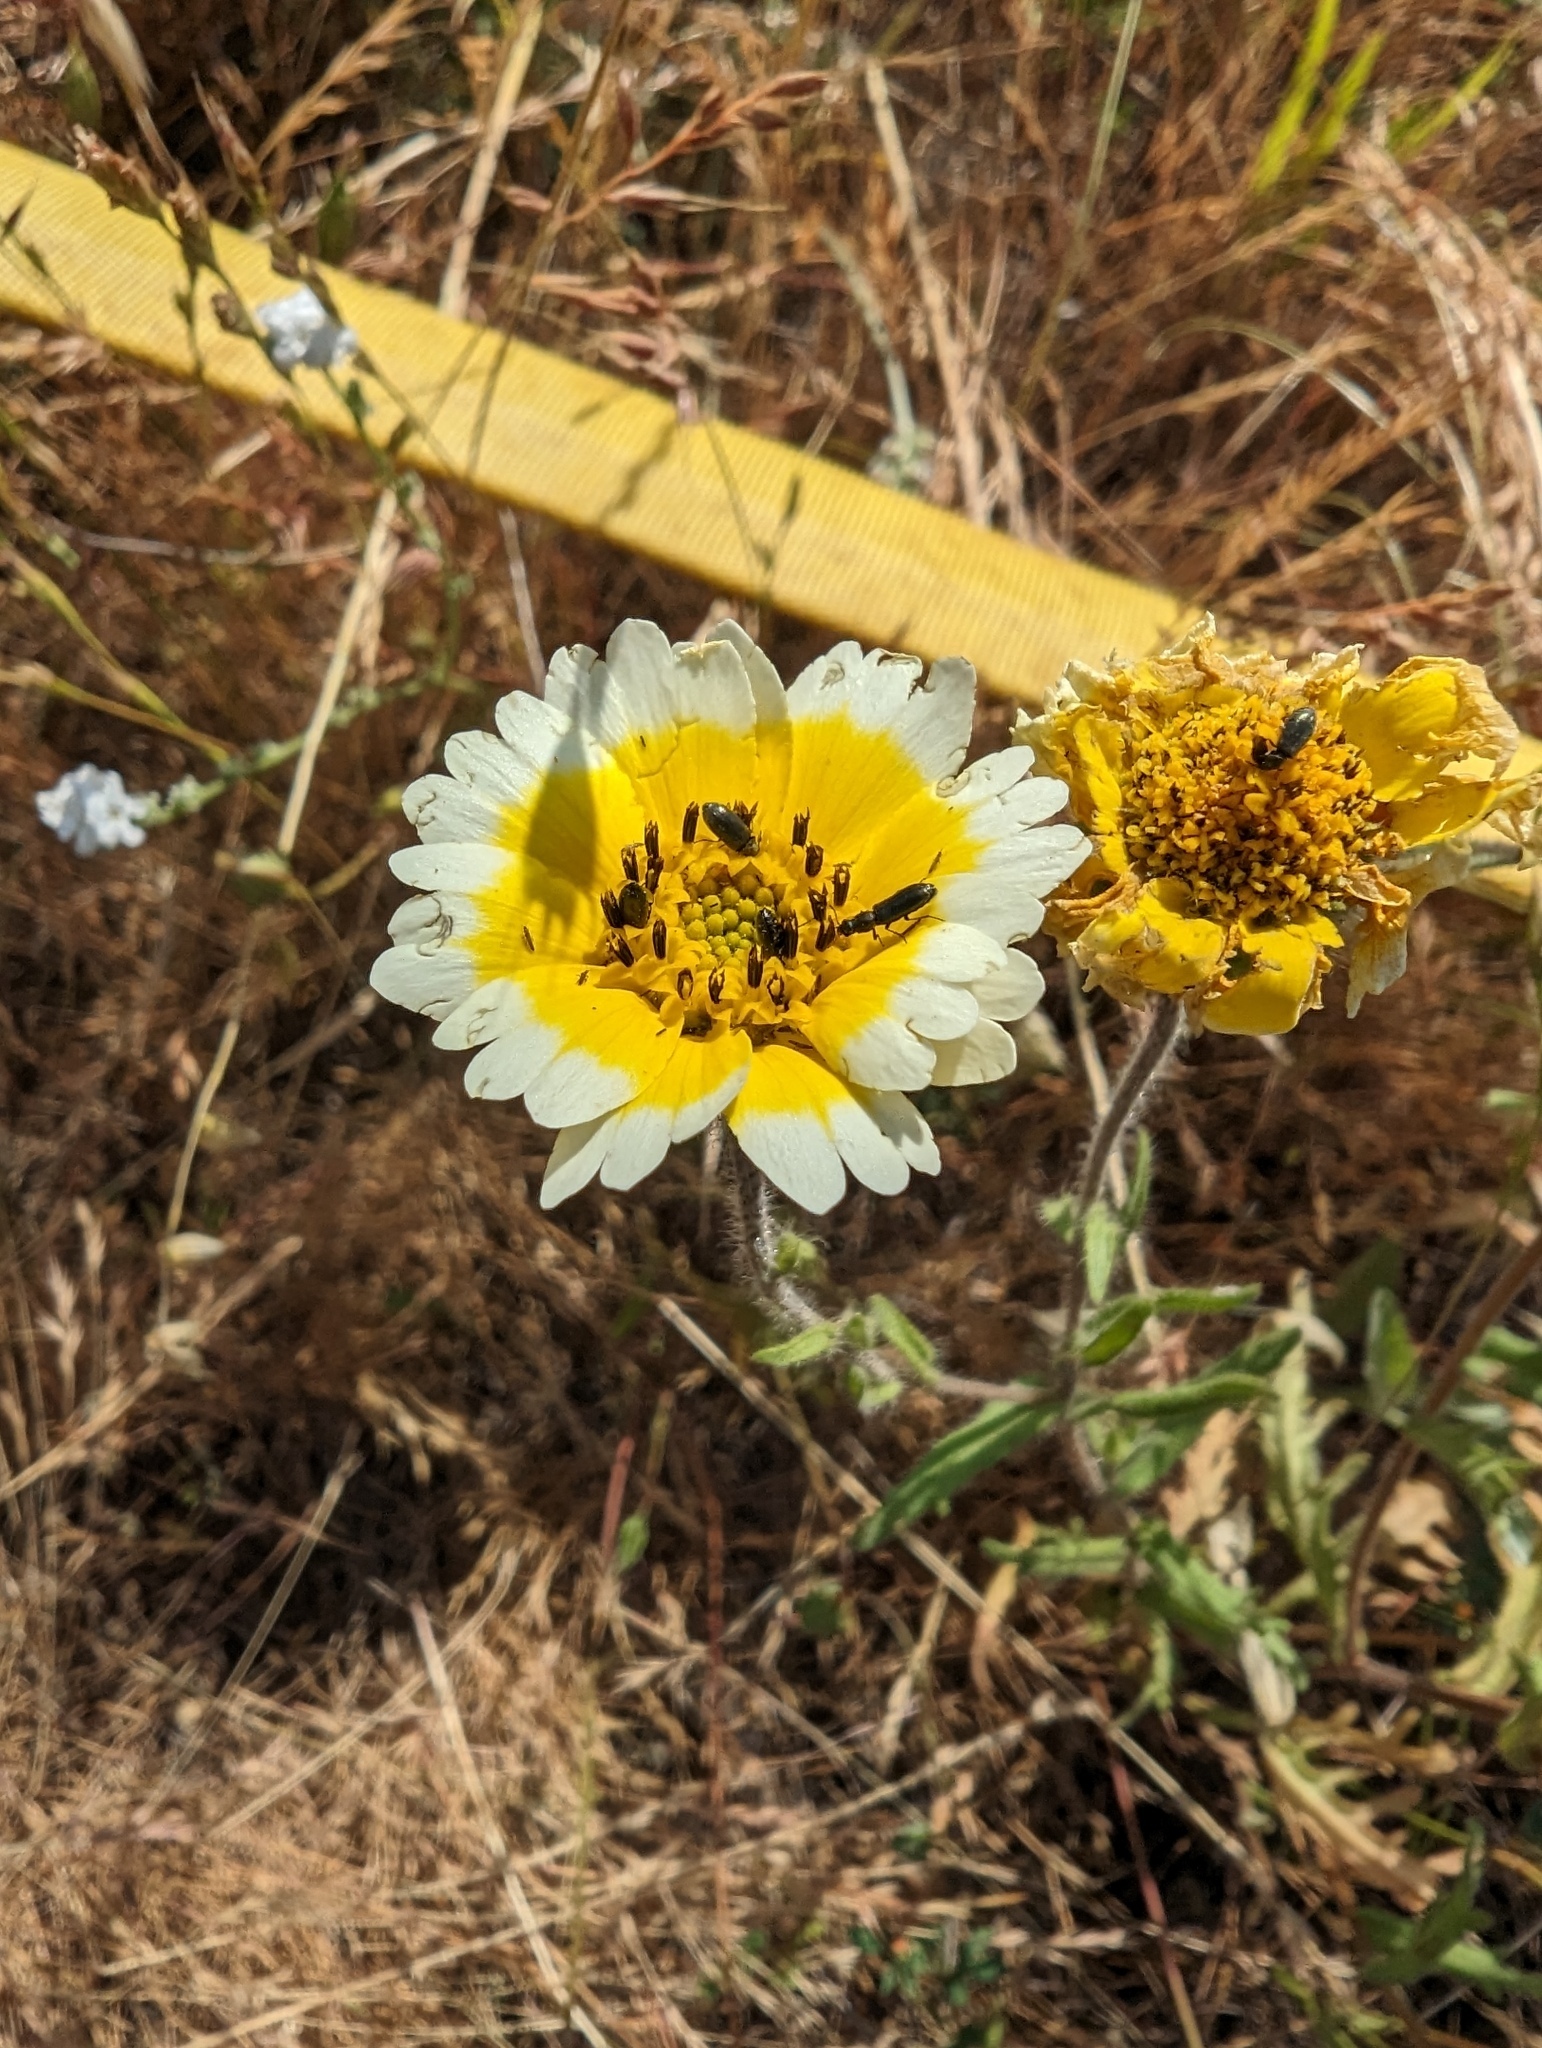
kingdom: Plantae
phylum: Tracheophyta
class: Magnoliopsida
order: Asterales
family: Asteraceae
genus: Layia
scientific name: Layia gaillardioides
